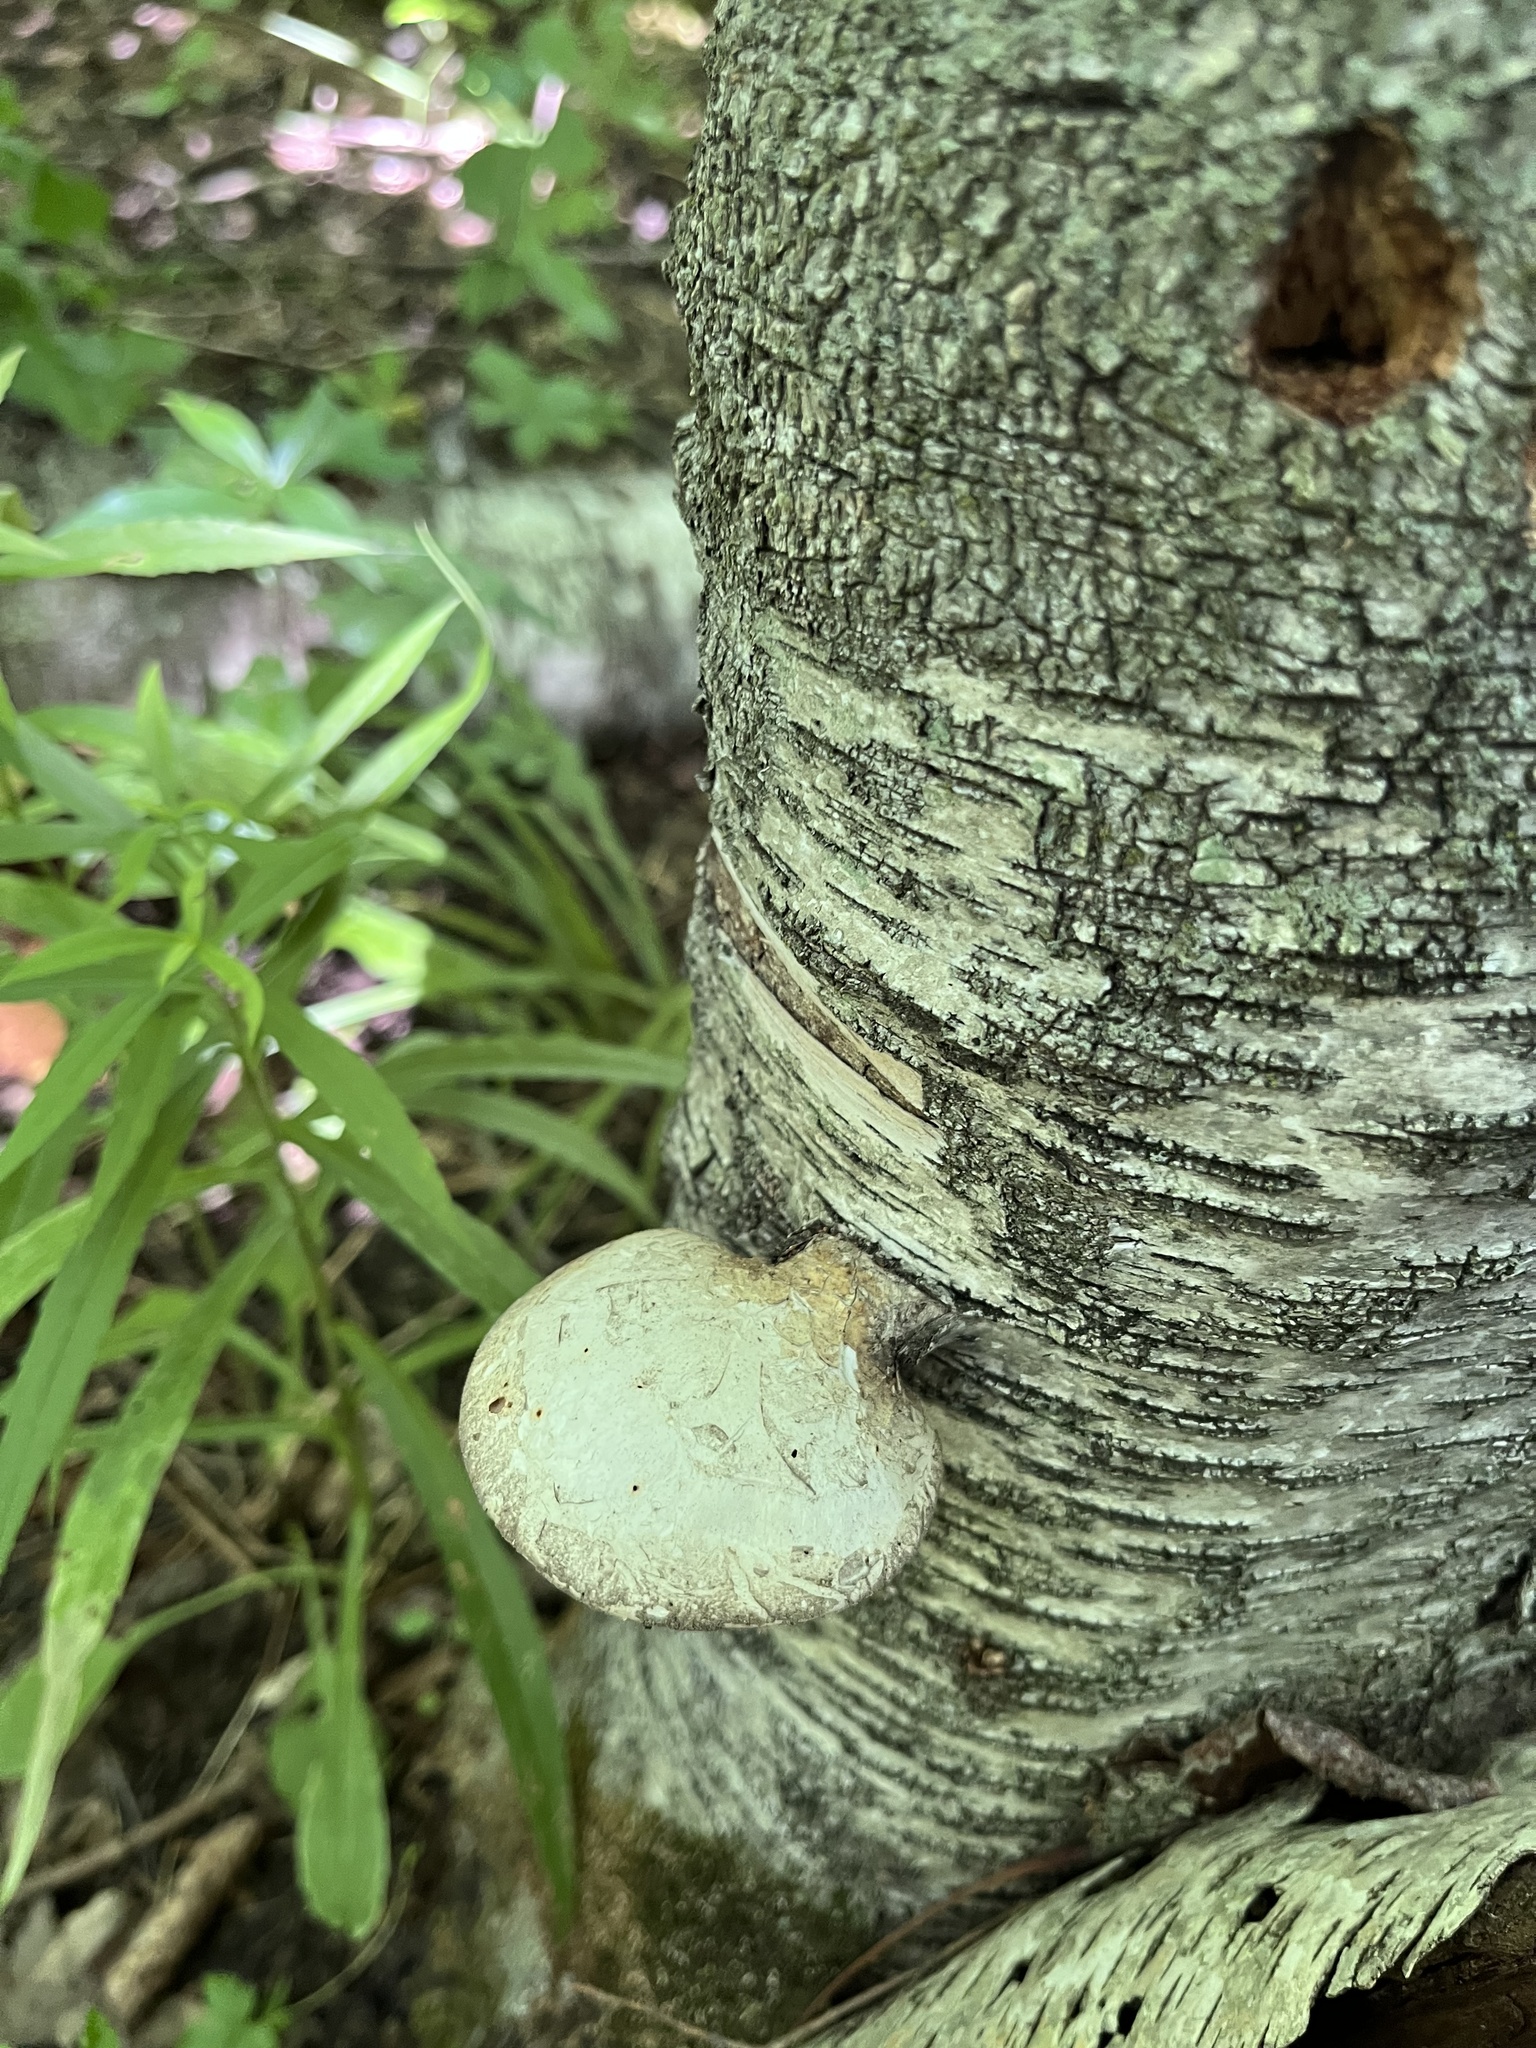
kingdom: Fungi
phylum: Basidiomycota
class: Agaricomycetes
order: Polyporales
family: Fomitopsidaceae
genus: Fomitopsis
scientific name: Fomitopsis betulina
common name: Birch polypore
